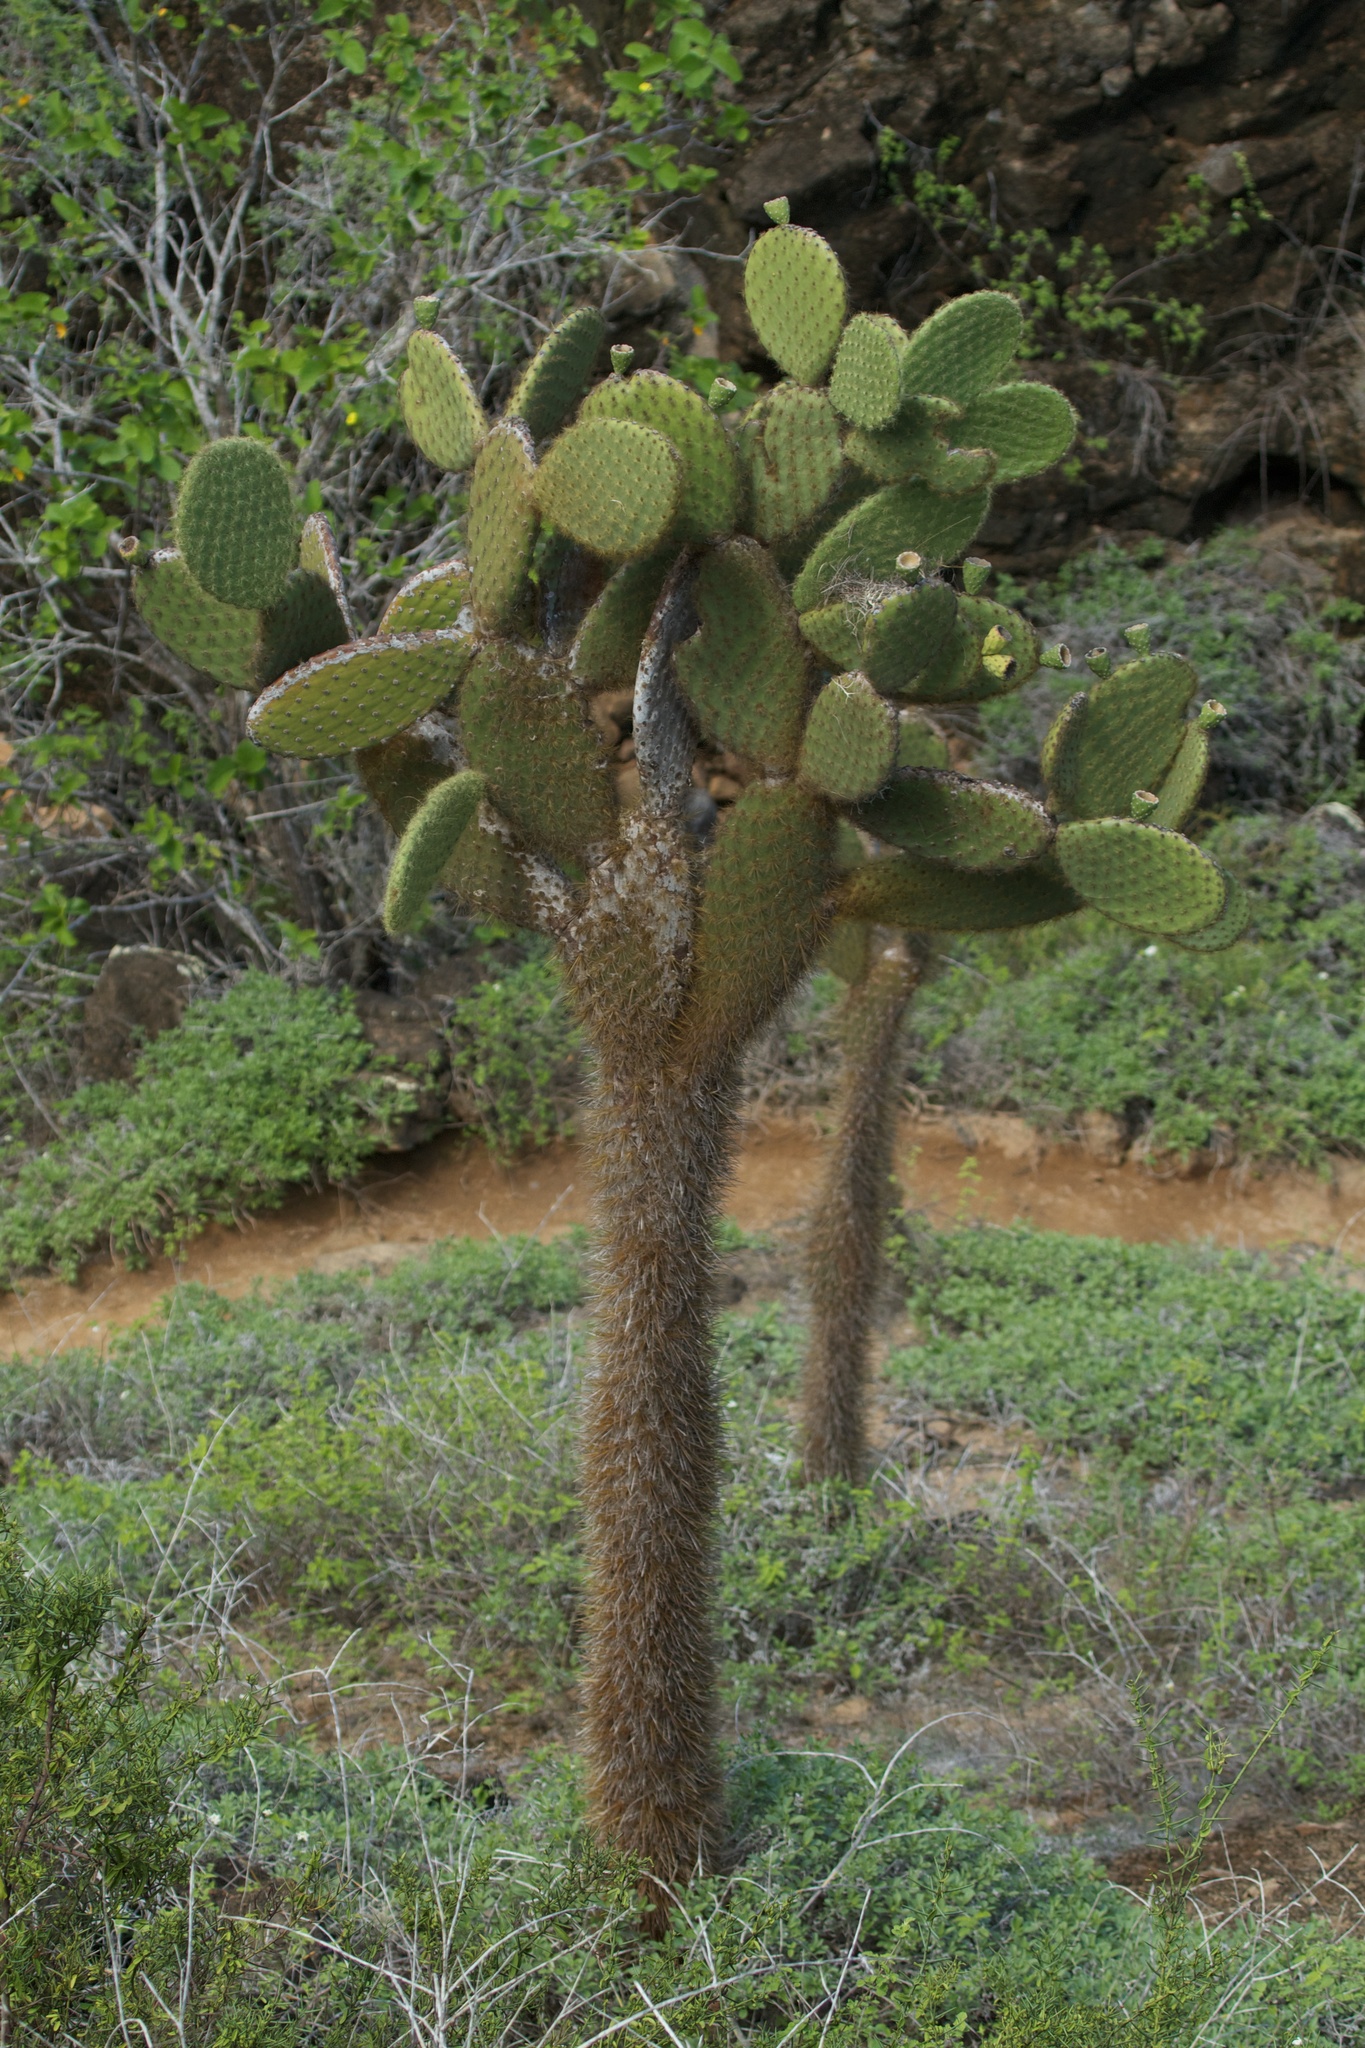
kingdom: Plantae
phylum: Tracheophyta
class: Magnoliopsida
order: Caryophyllales
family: Cactaceae
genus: Opuntia
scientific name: Opuntia galapageia
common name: Galápagos prickly pear
